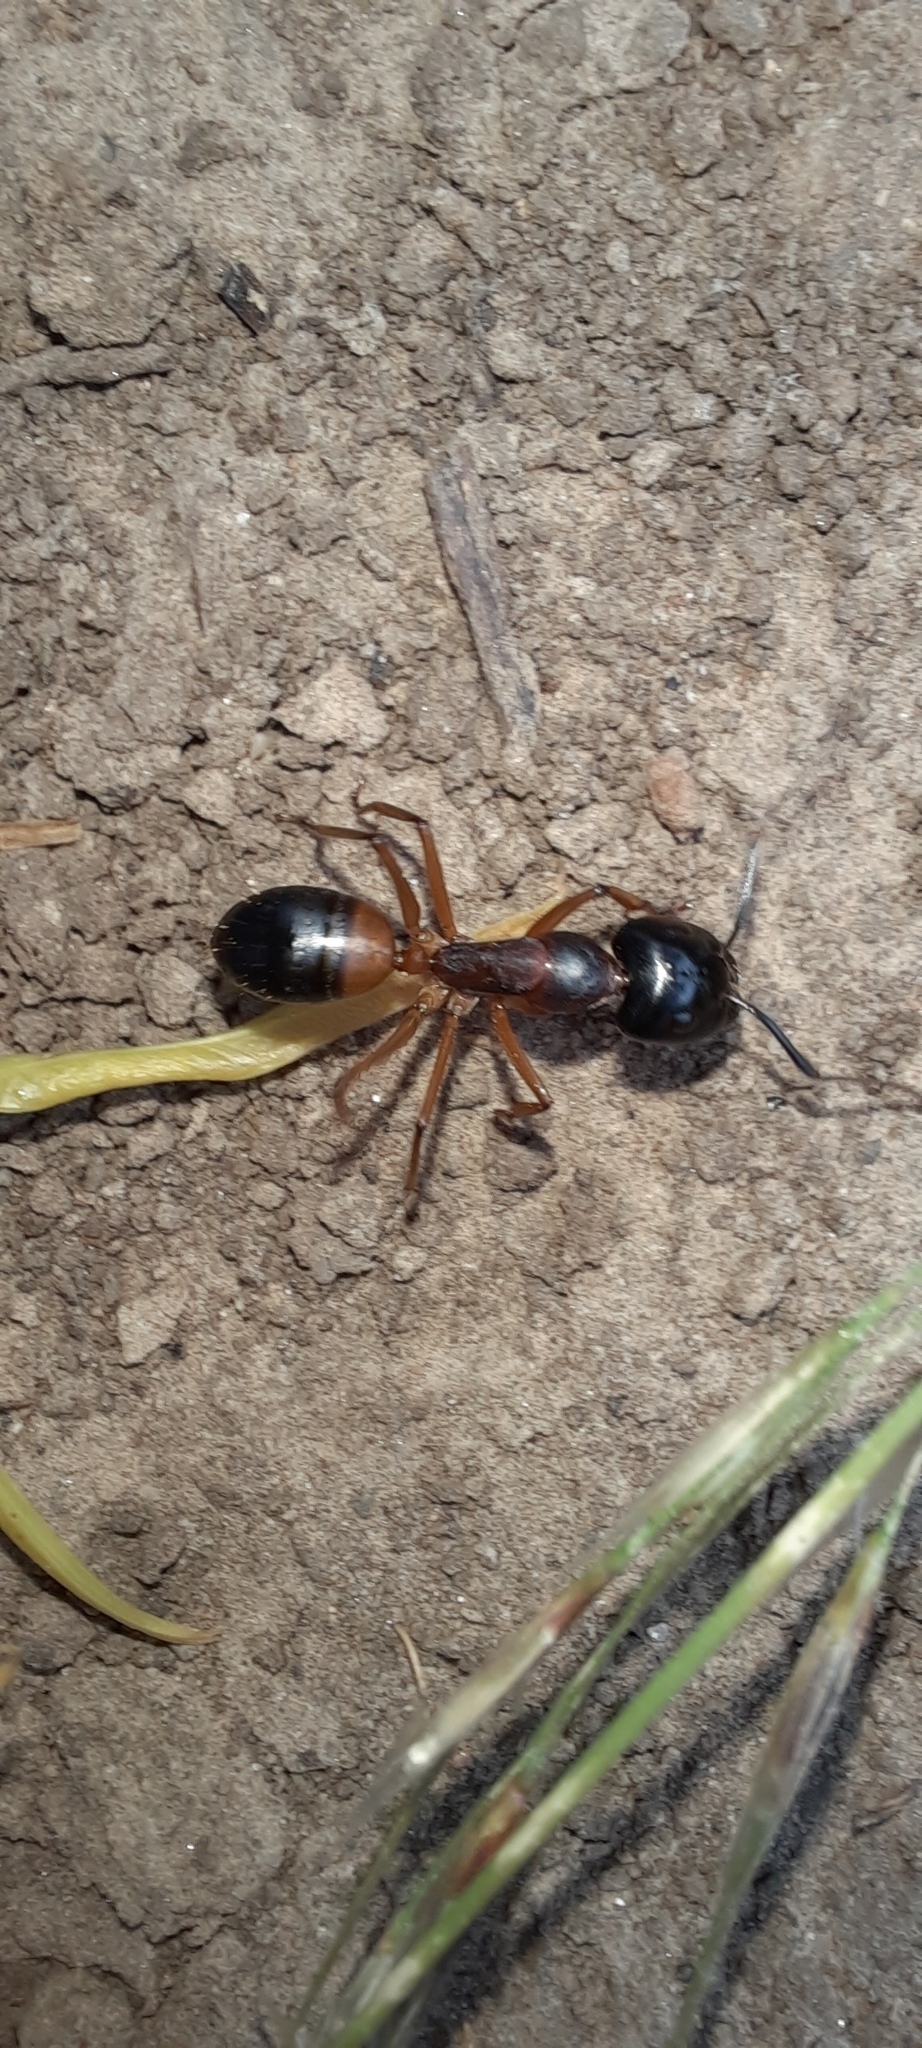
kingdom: Animalia
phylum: Arthropoda
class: Insecta
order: Hymenoptera
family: Formicidae
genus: Camponotus
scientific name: Camponotus consobrinus
